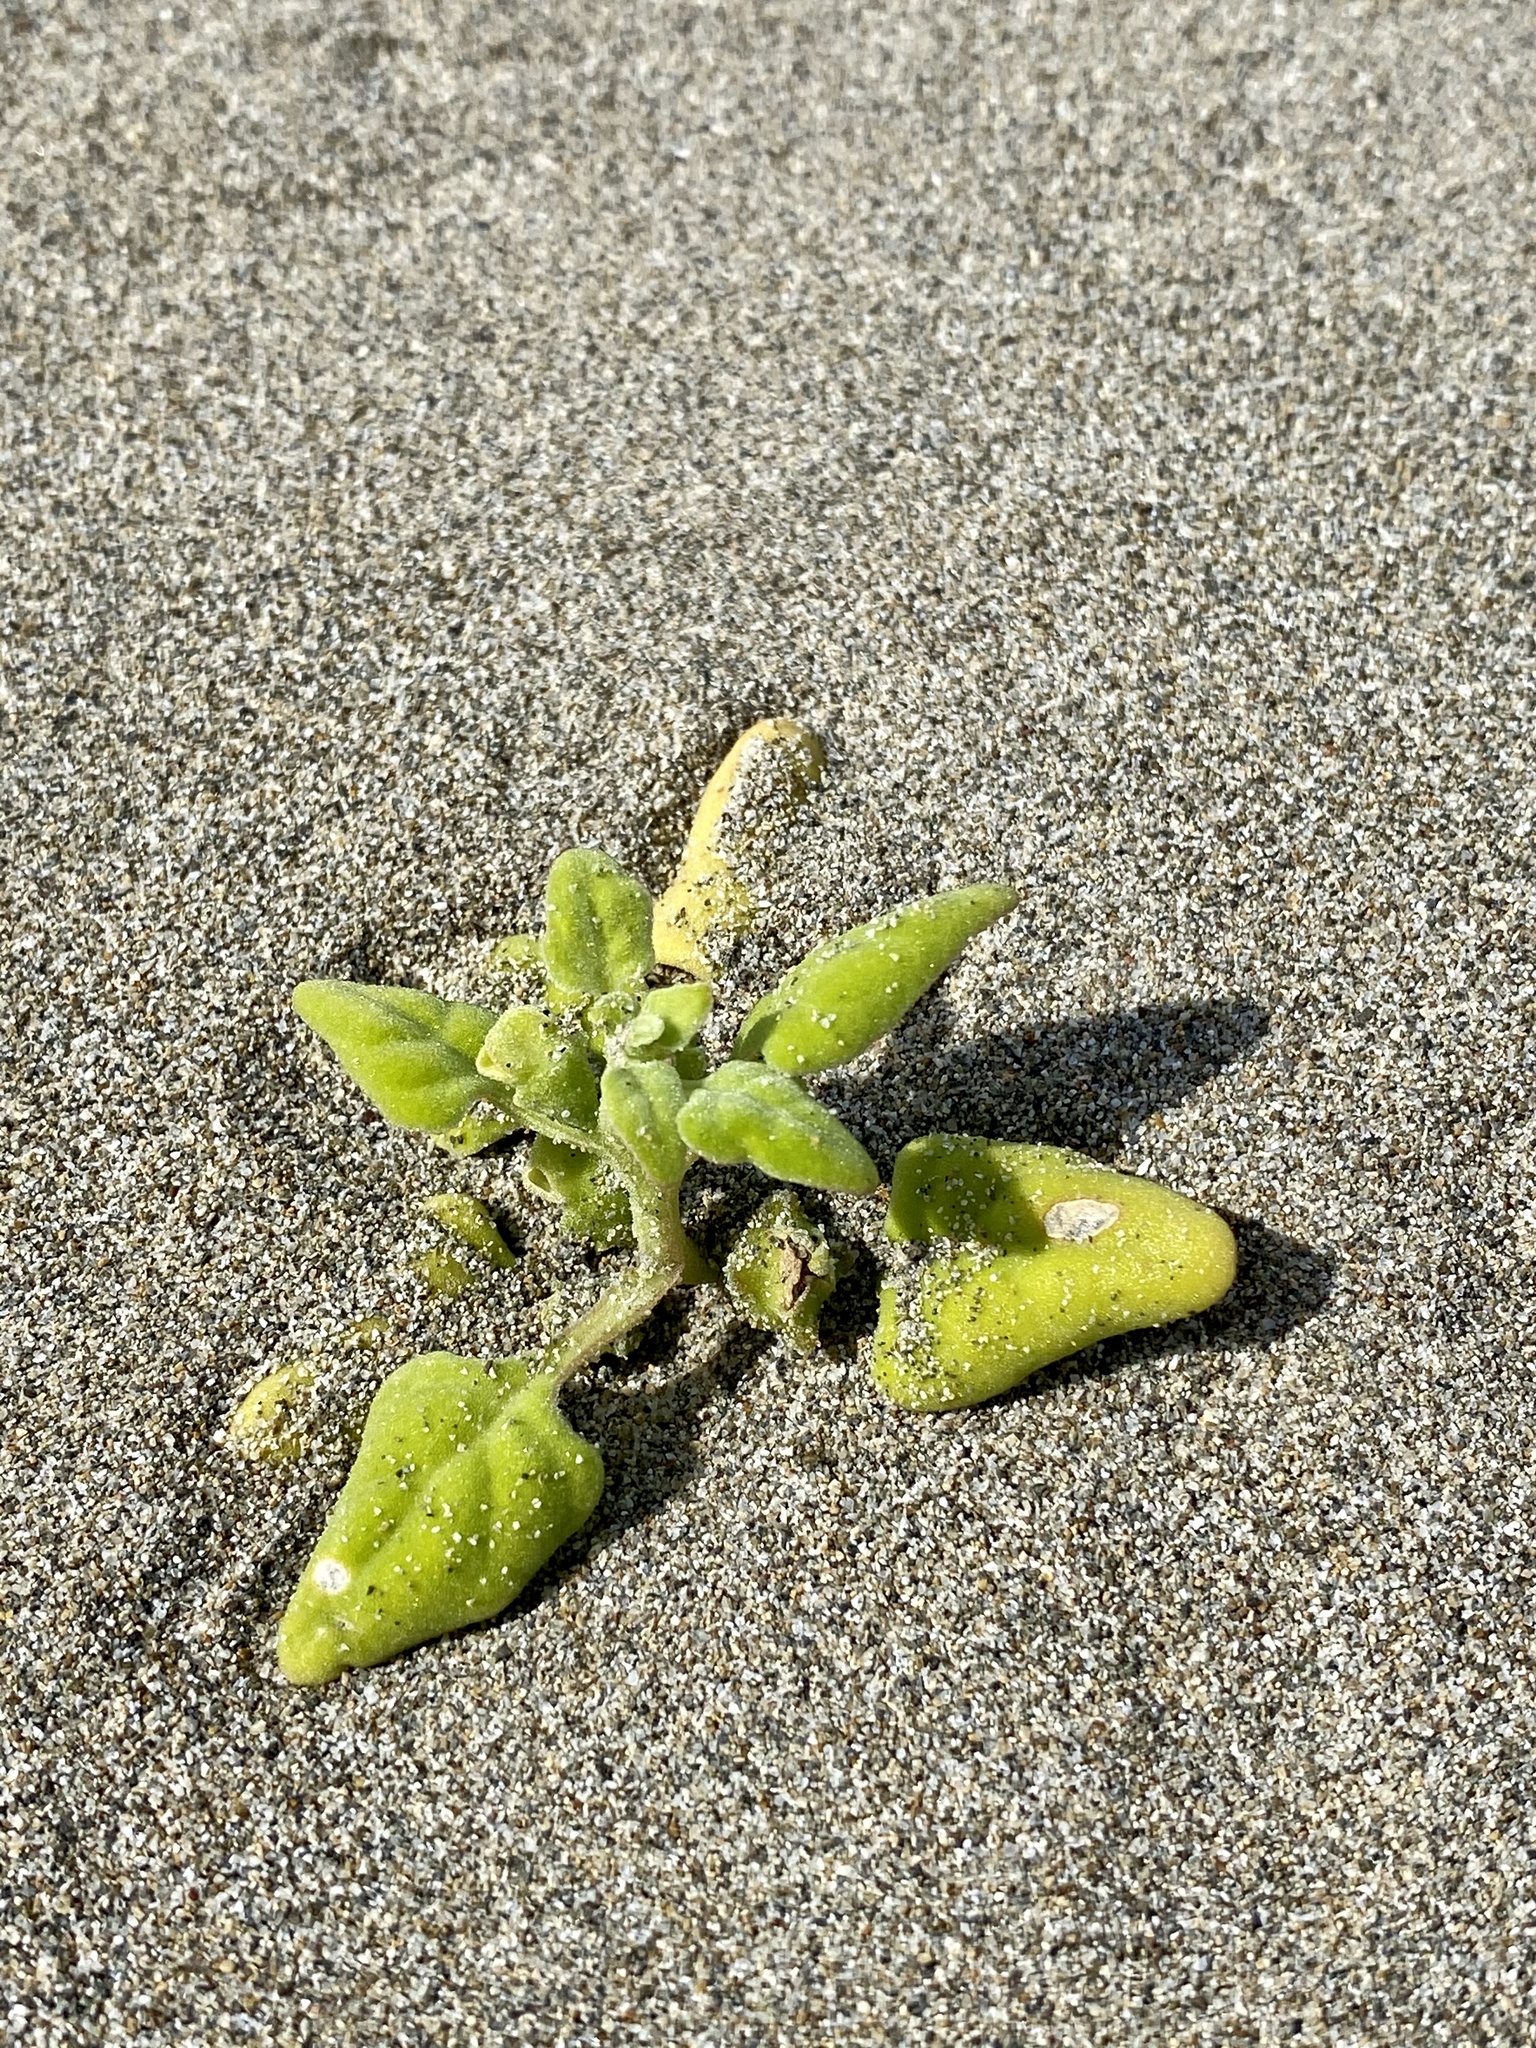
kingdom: Plantae
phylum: Tracheophyta
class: Magnoliopsida
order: Caryophyllales
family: Aizoaceae
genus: Tetragonia
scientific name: Tetragonia tetragonoides
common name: New zealand-spinach
